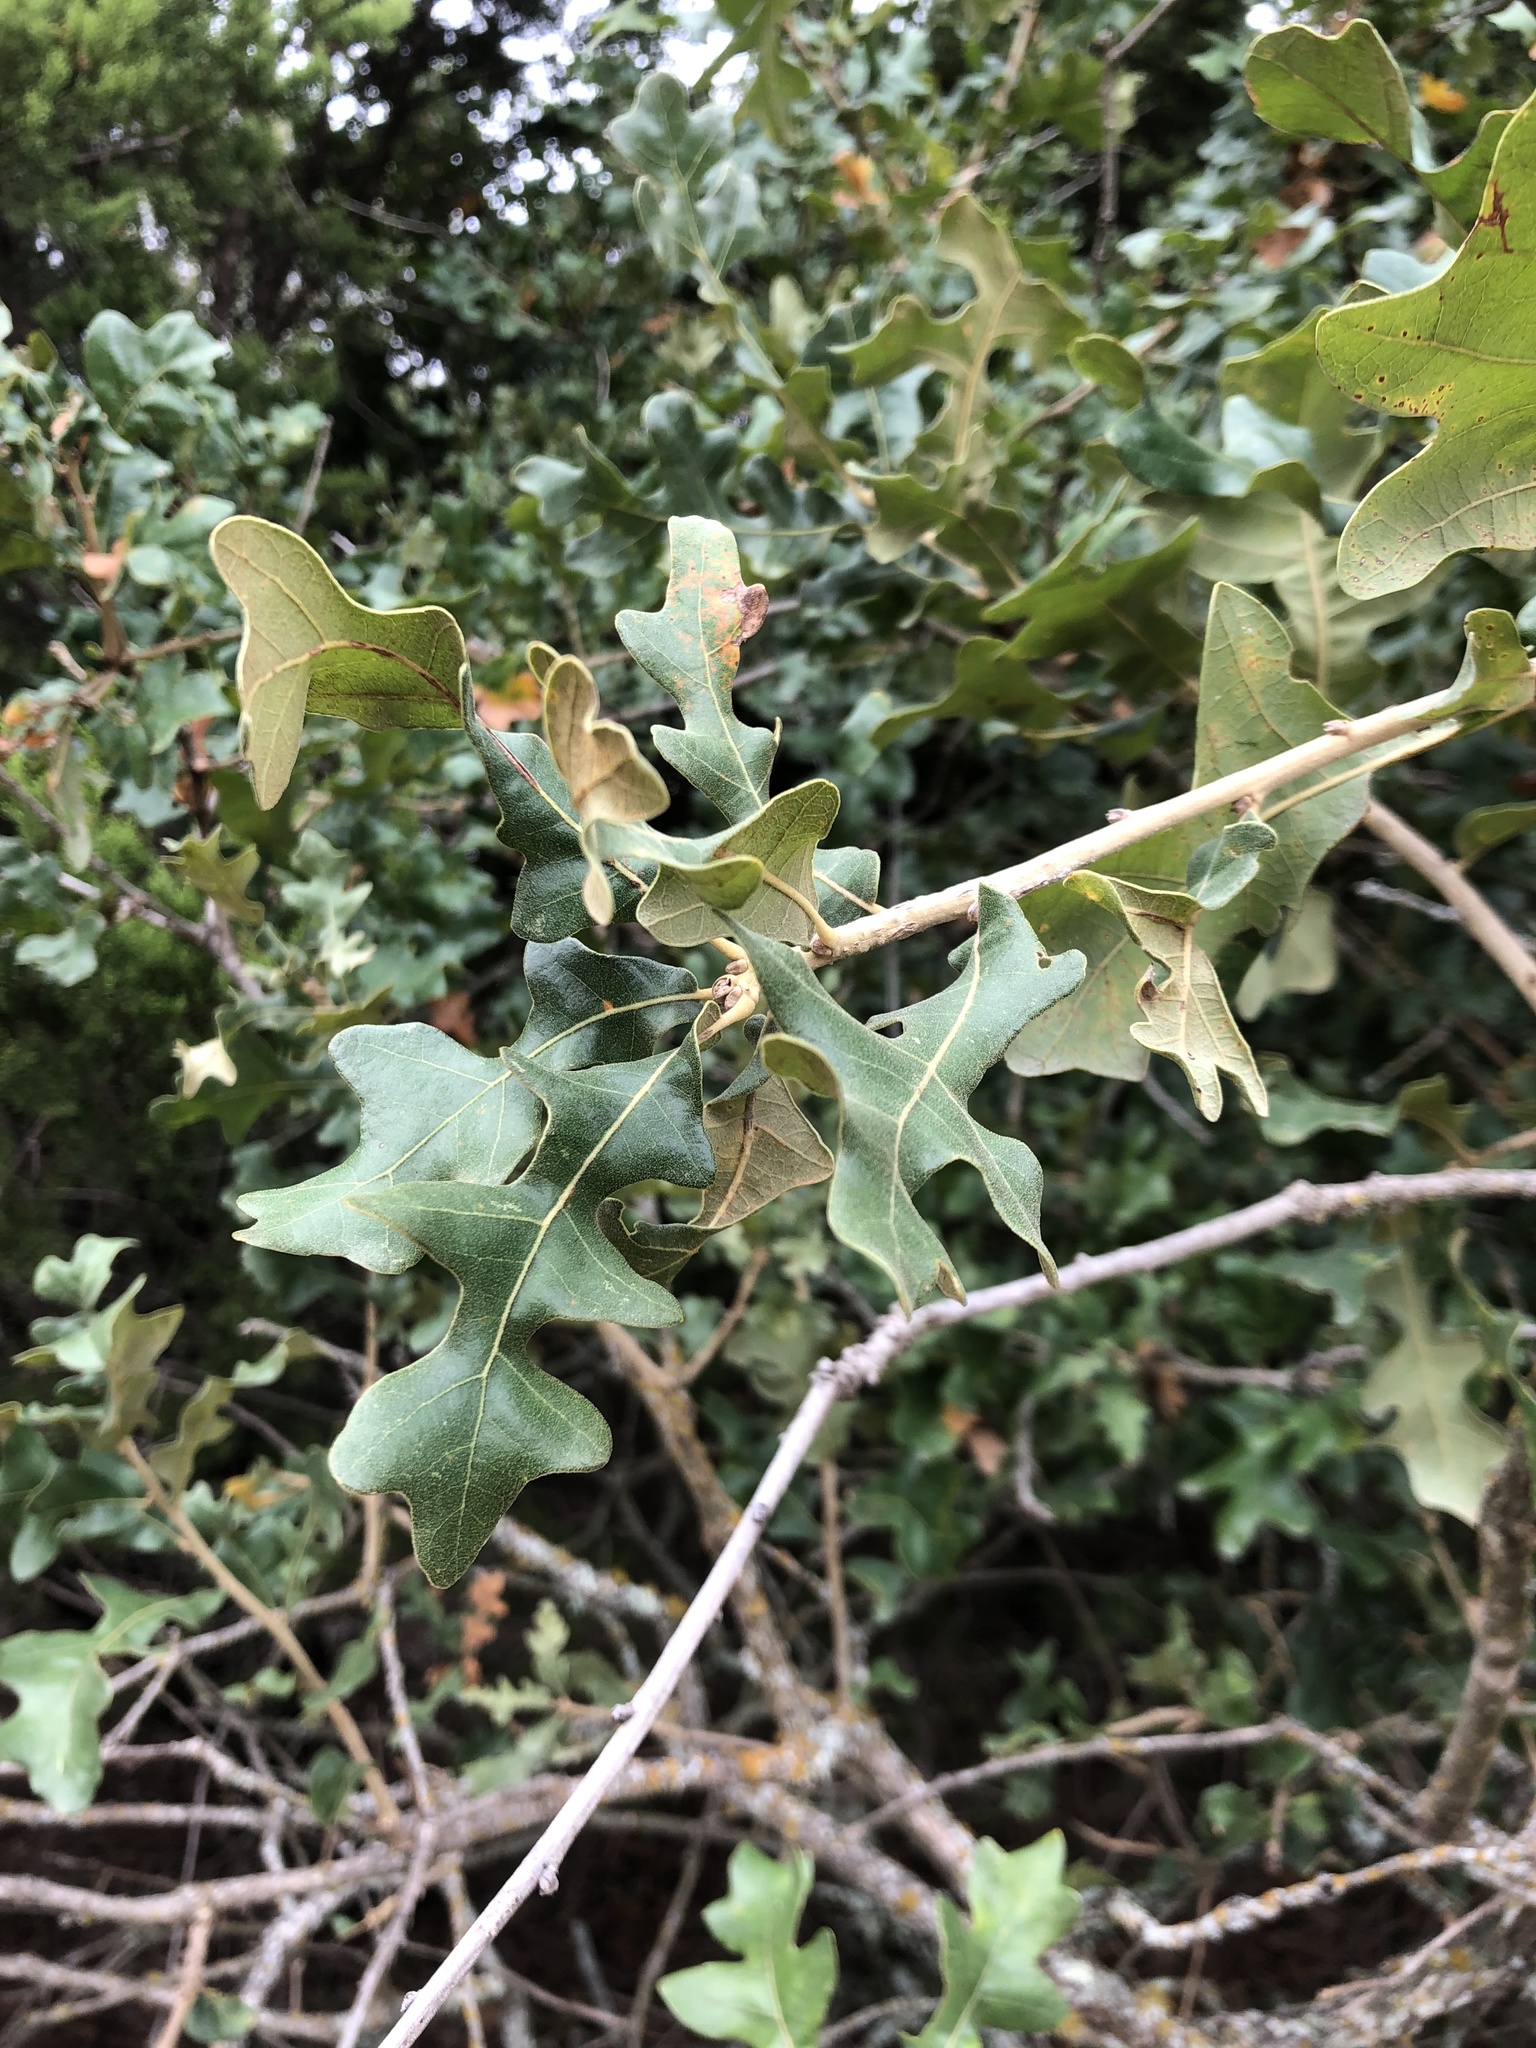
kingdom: Plantae
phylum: Tracheophyta
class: Magnoliopsida
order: Fagales
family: Fagaceae
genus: Quercus
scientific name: Quercus stellata
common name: Post oak
